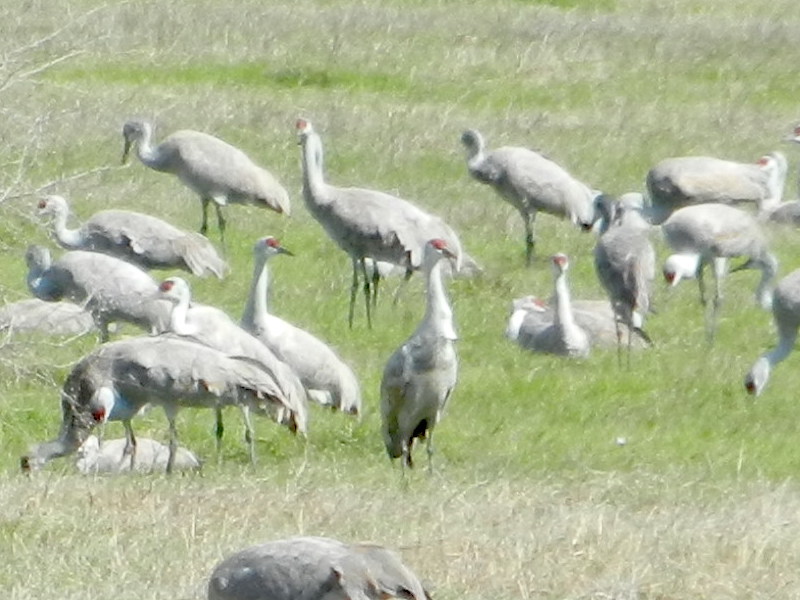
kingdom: Animalia
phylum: Chordata
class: Aves
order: Gruiformes
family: Gruidae
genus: Grus
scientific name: Grus canadensis
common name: Sandhill crane
